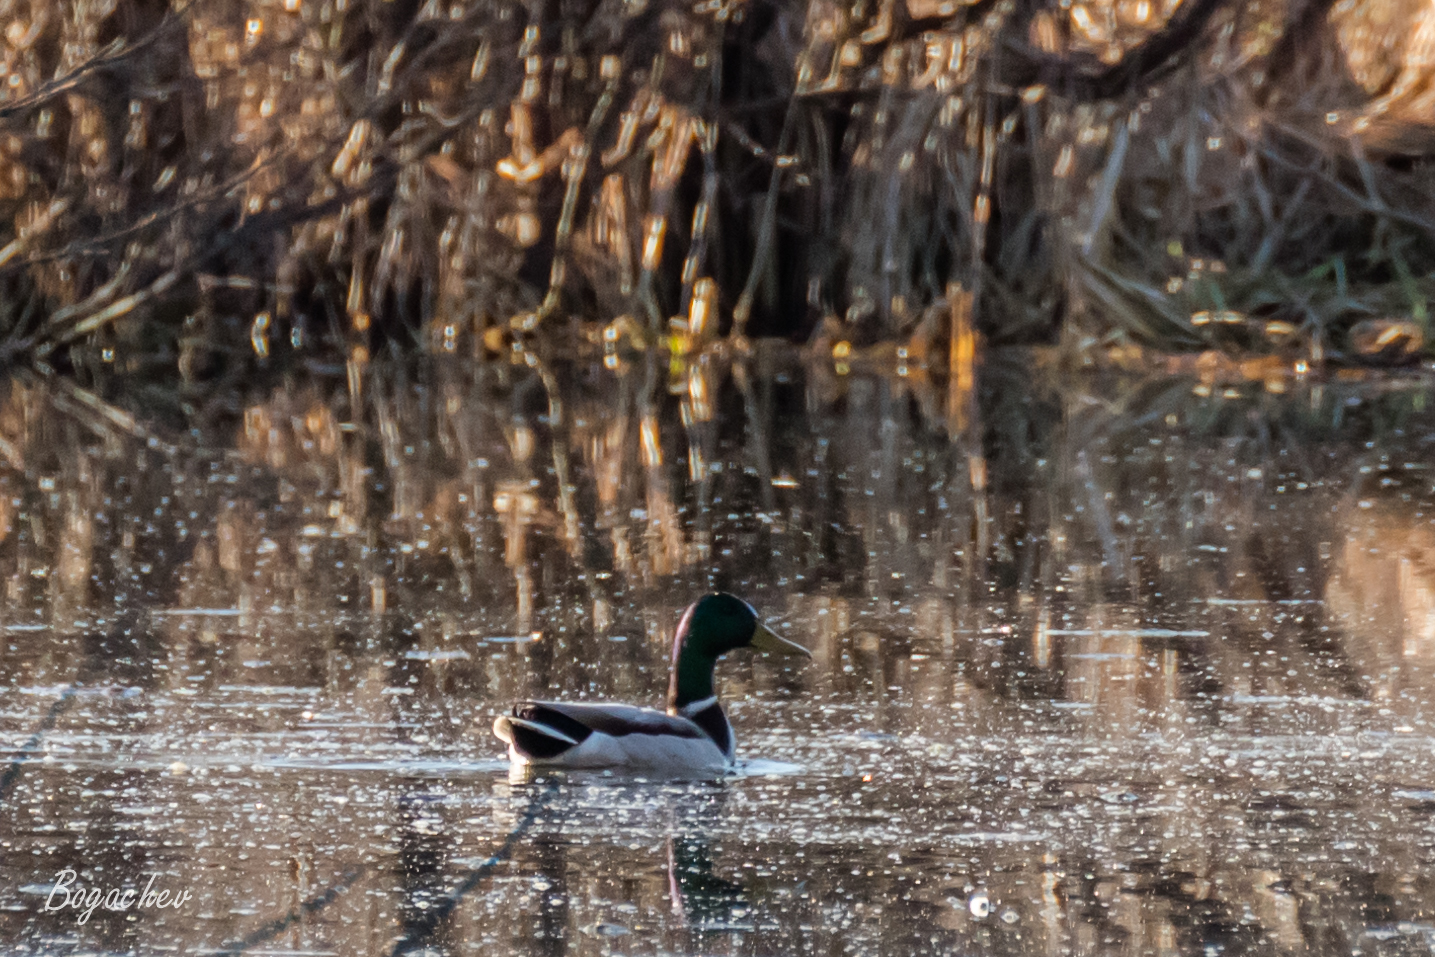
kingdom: Animalia
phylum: Chordata
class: Aves
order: Anseriformes
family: Anatidae
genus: Anas
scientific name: Anas platyrhynchos
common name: Mallard
